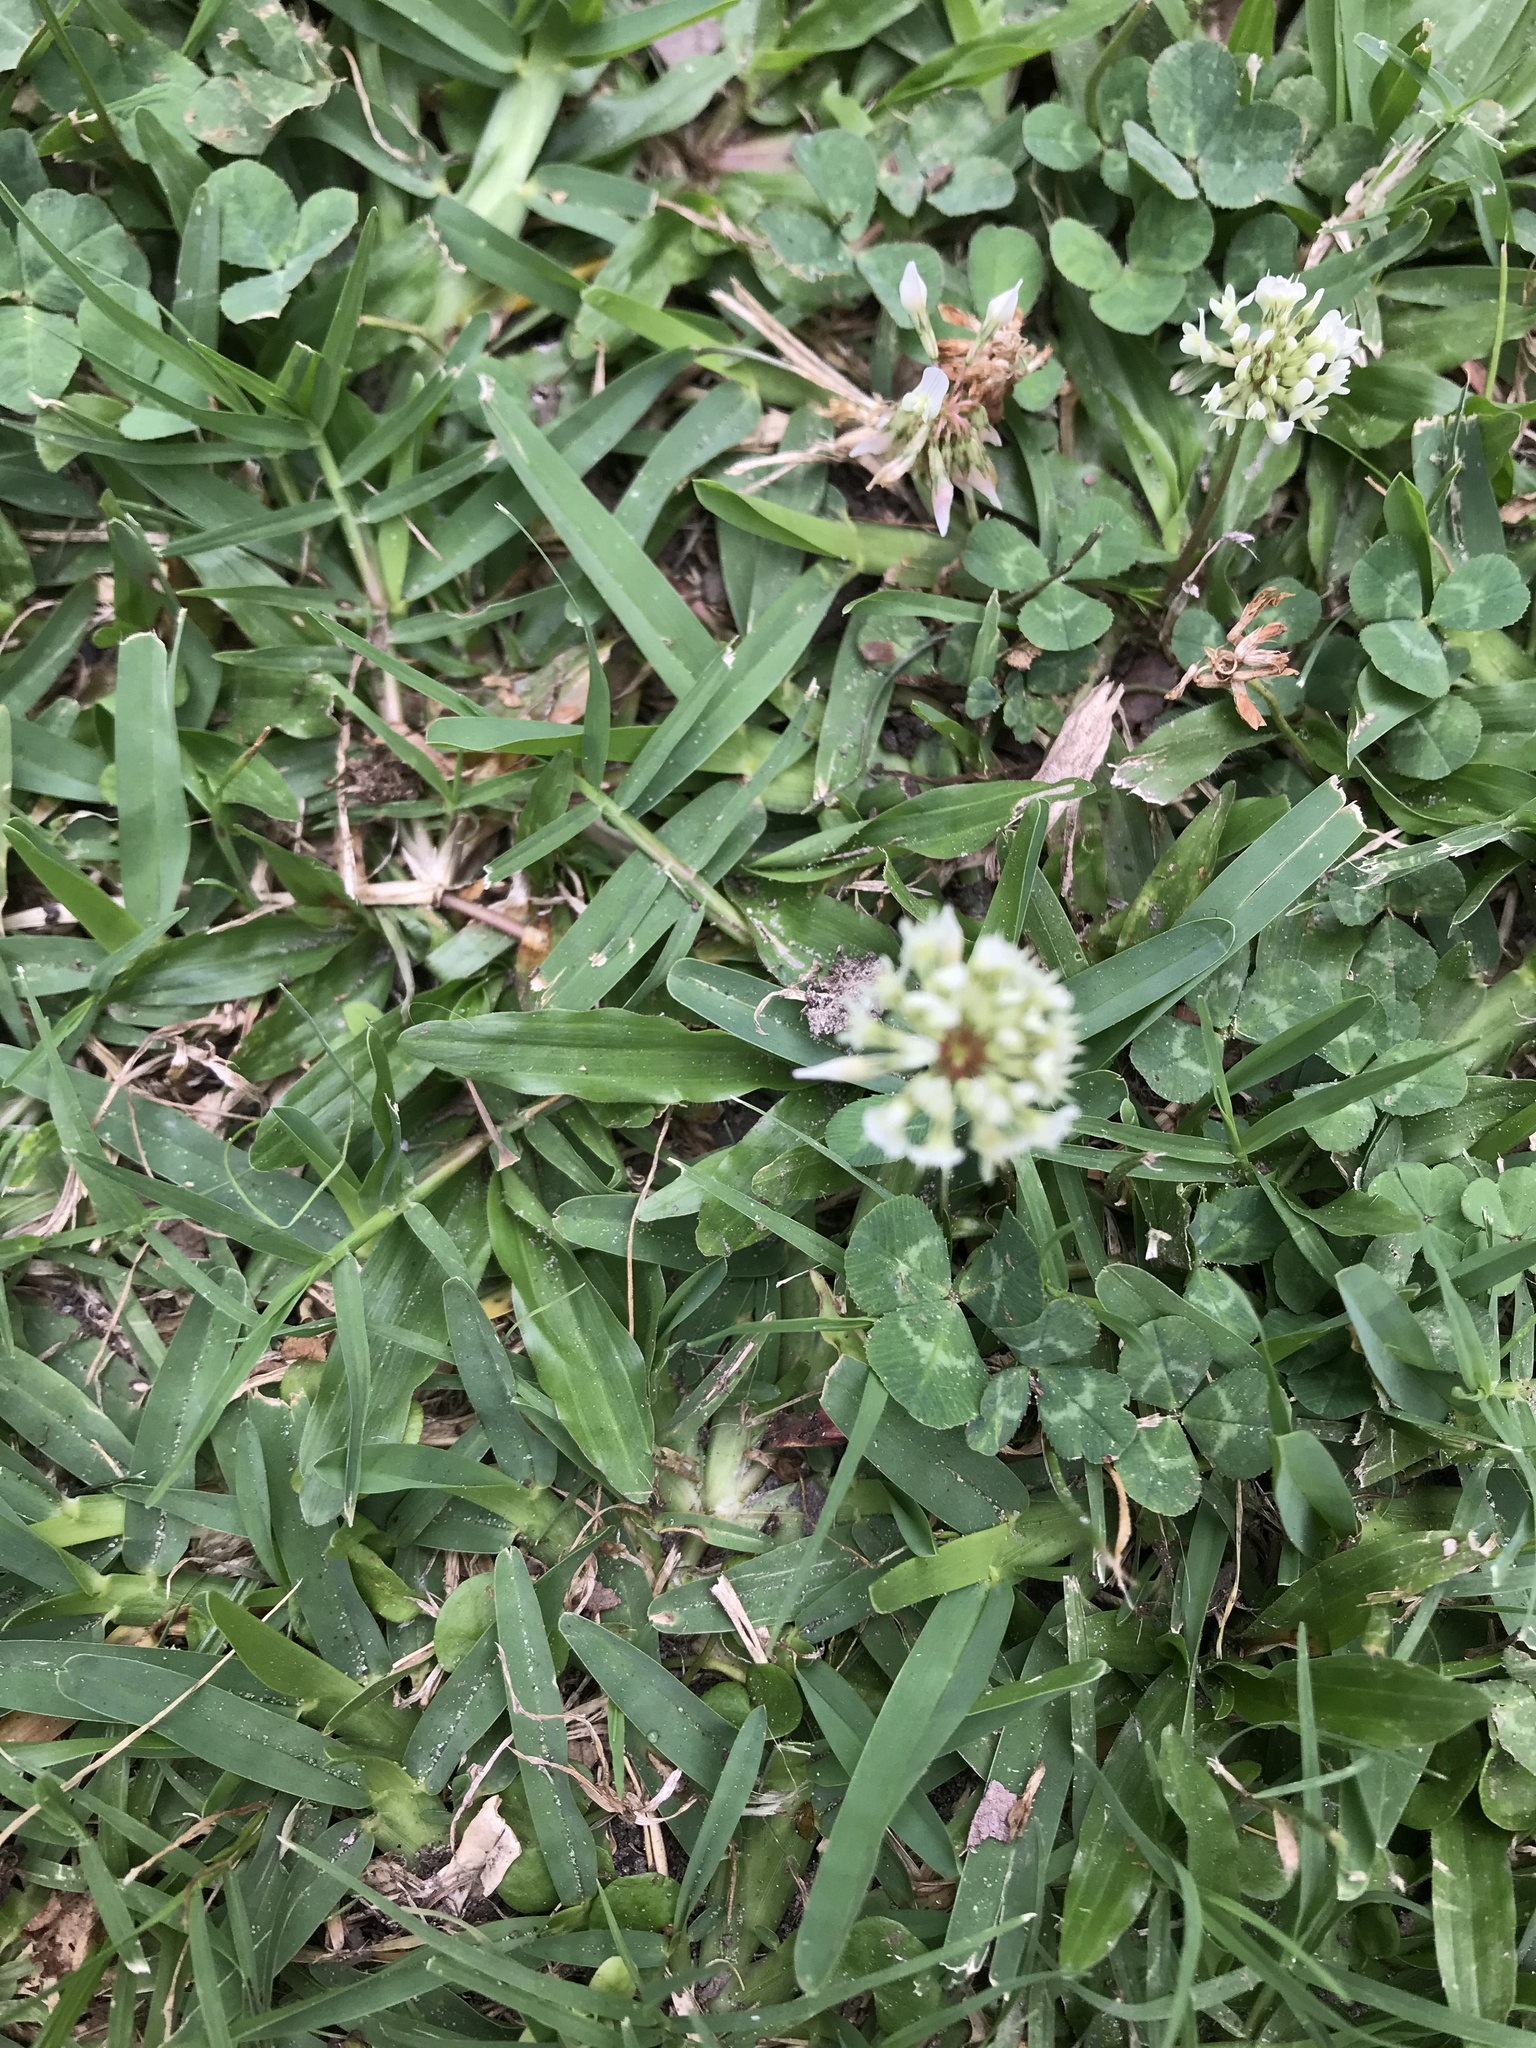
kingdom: Plantae
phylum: Tracheophyta
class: Magnoliopsida
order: Fabales
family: Fabaceae
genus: Trifolium
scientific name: Trifolium repens
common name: White clover
